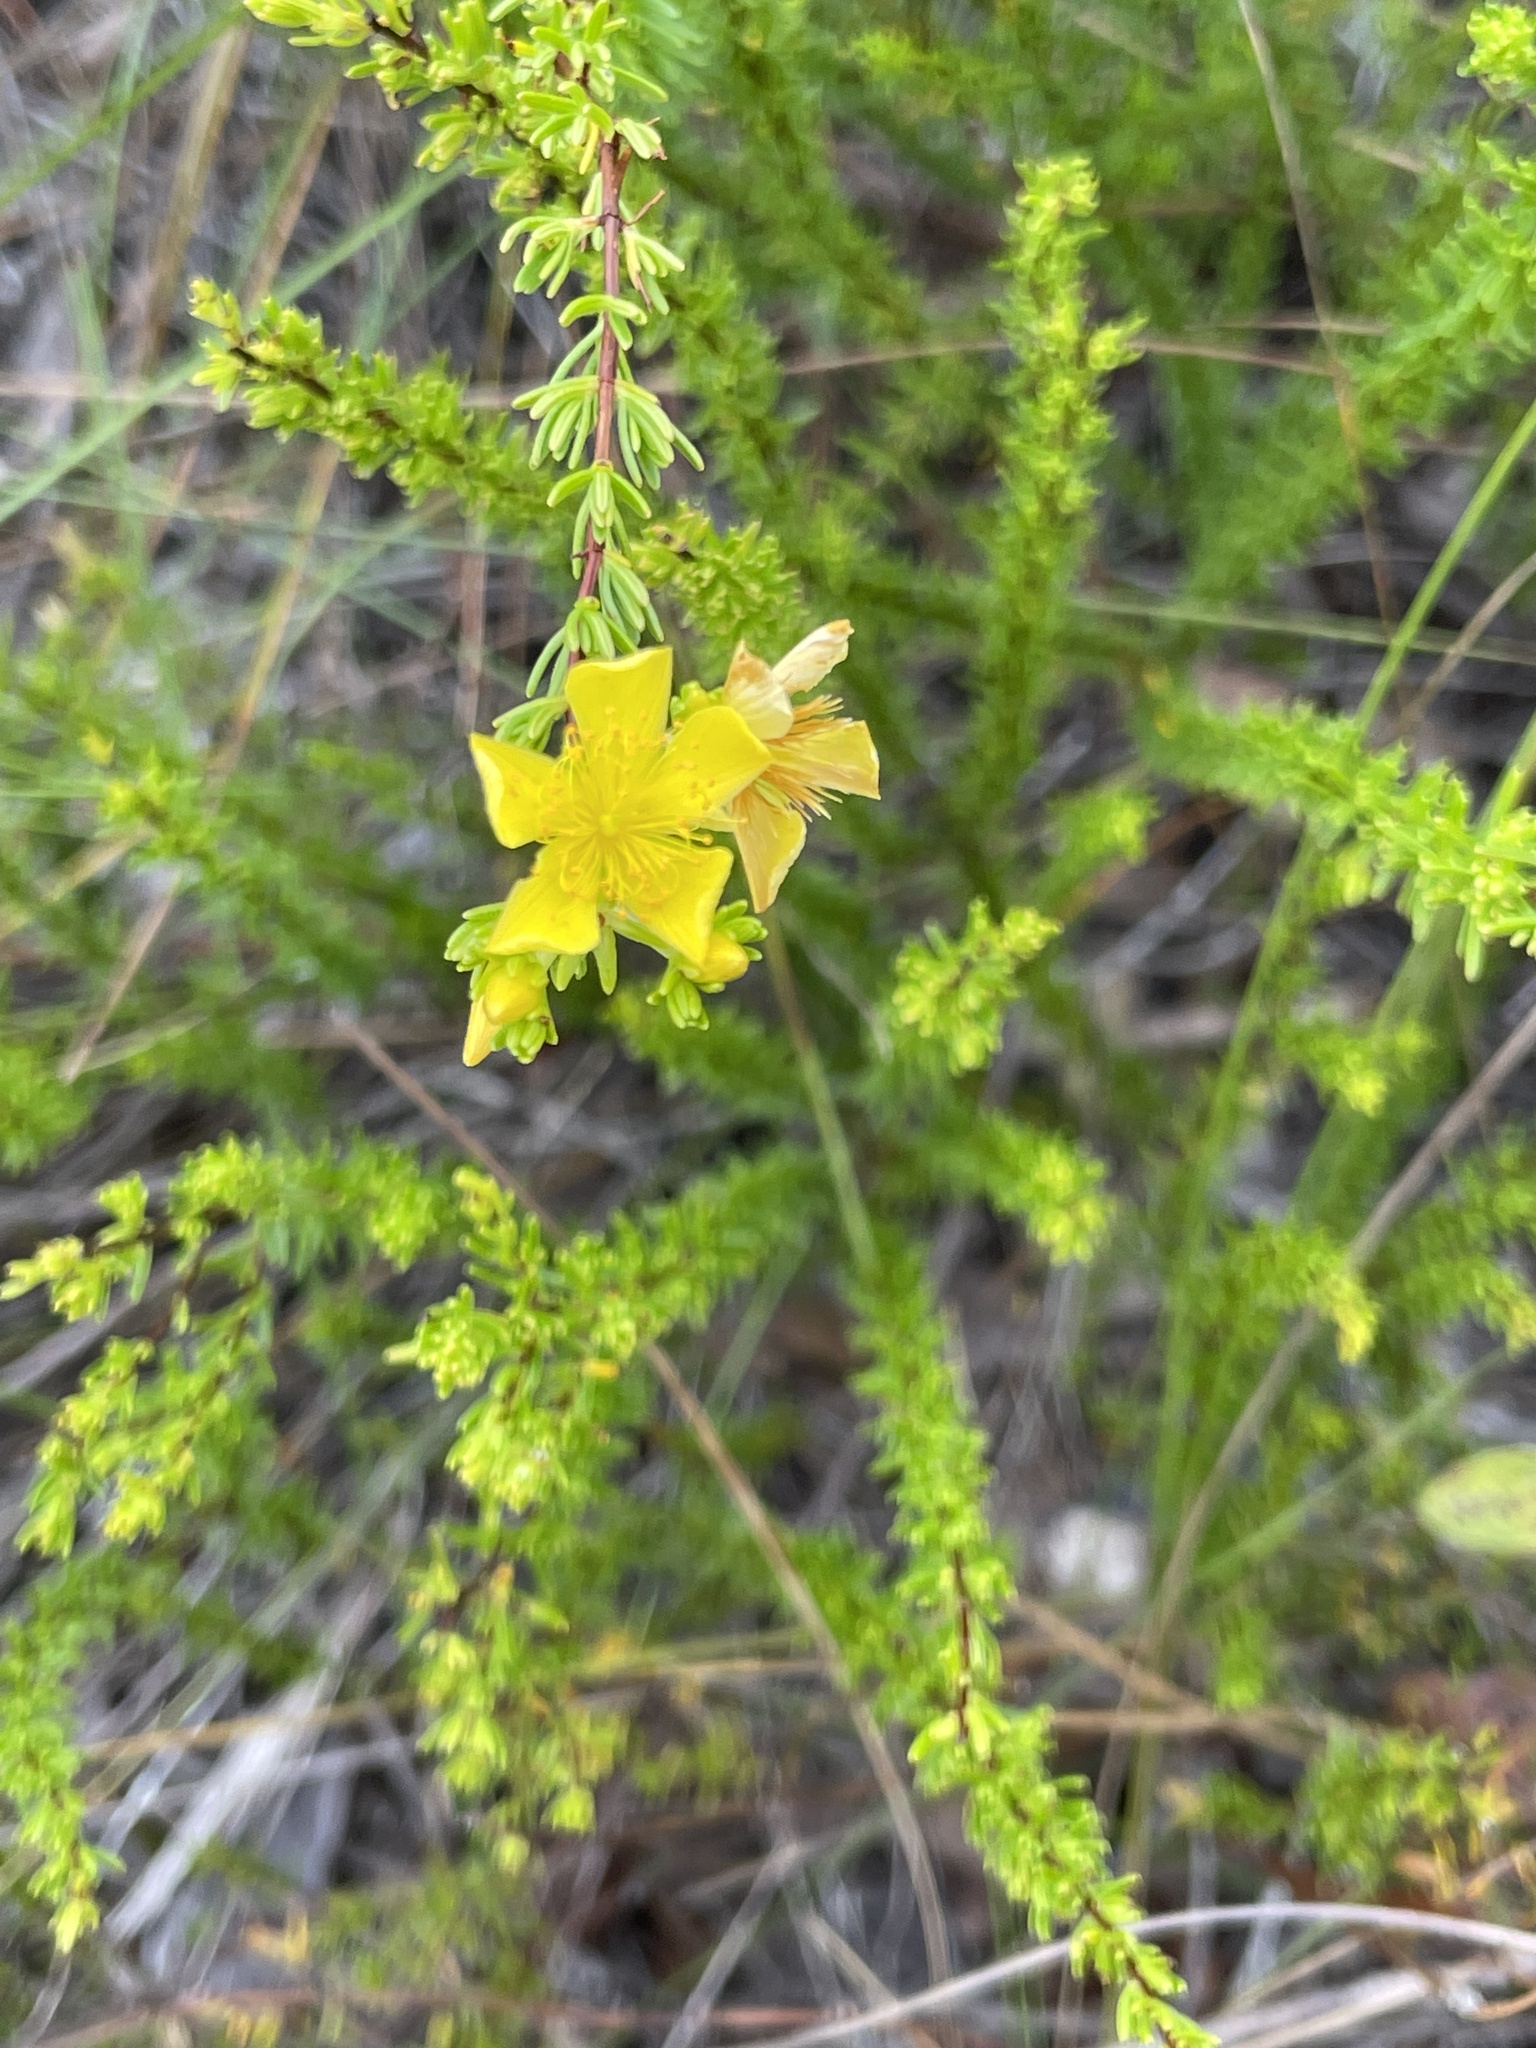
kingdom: Plantae
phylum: Tracheophyta
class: Magnoliopsida
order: Malpighiales
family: Hypericaceae
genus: Hypericum
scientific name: Hypericum tenuifolium
